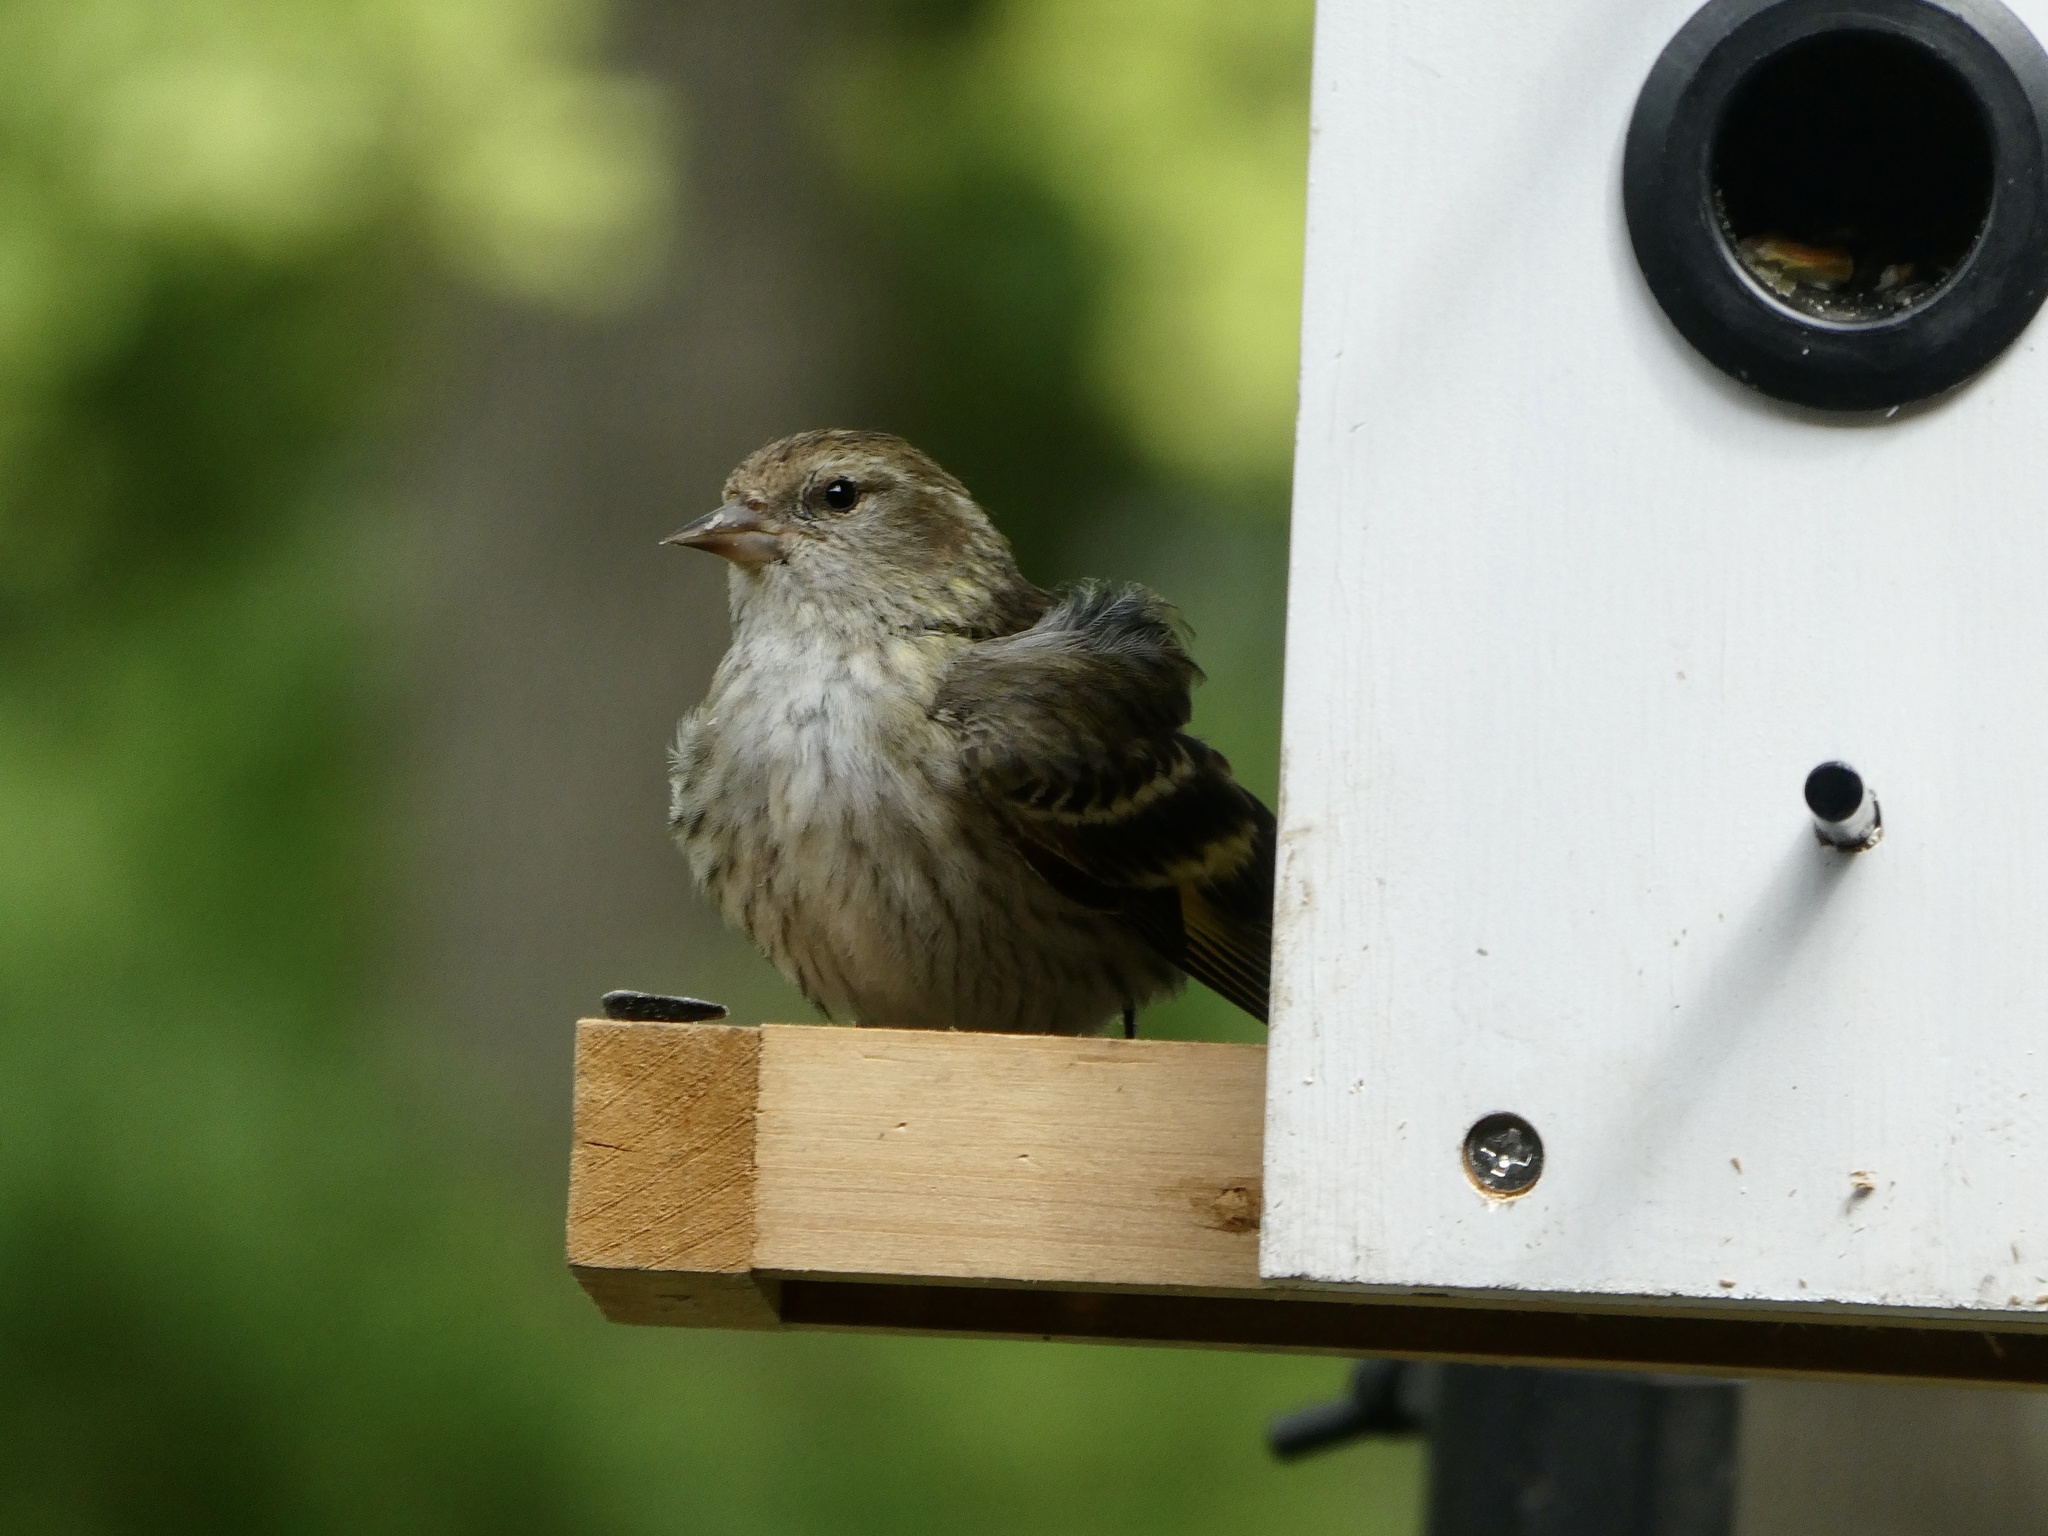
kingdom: Animalia
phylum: Chordata
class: Aves
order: Passeriformes
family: Fringillidae
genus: Spinus
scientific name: Spinus pinus
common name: Pine siskin
